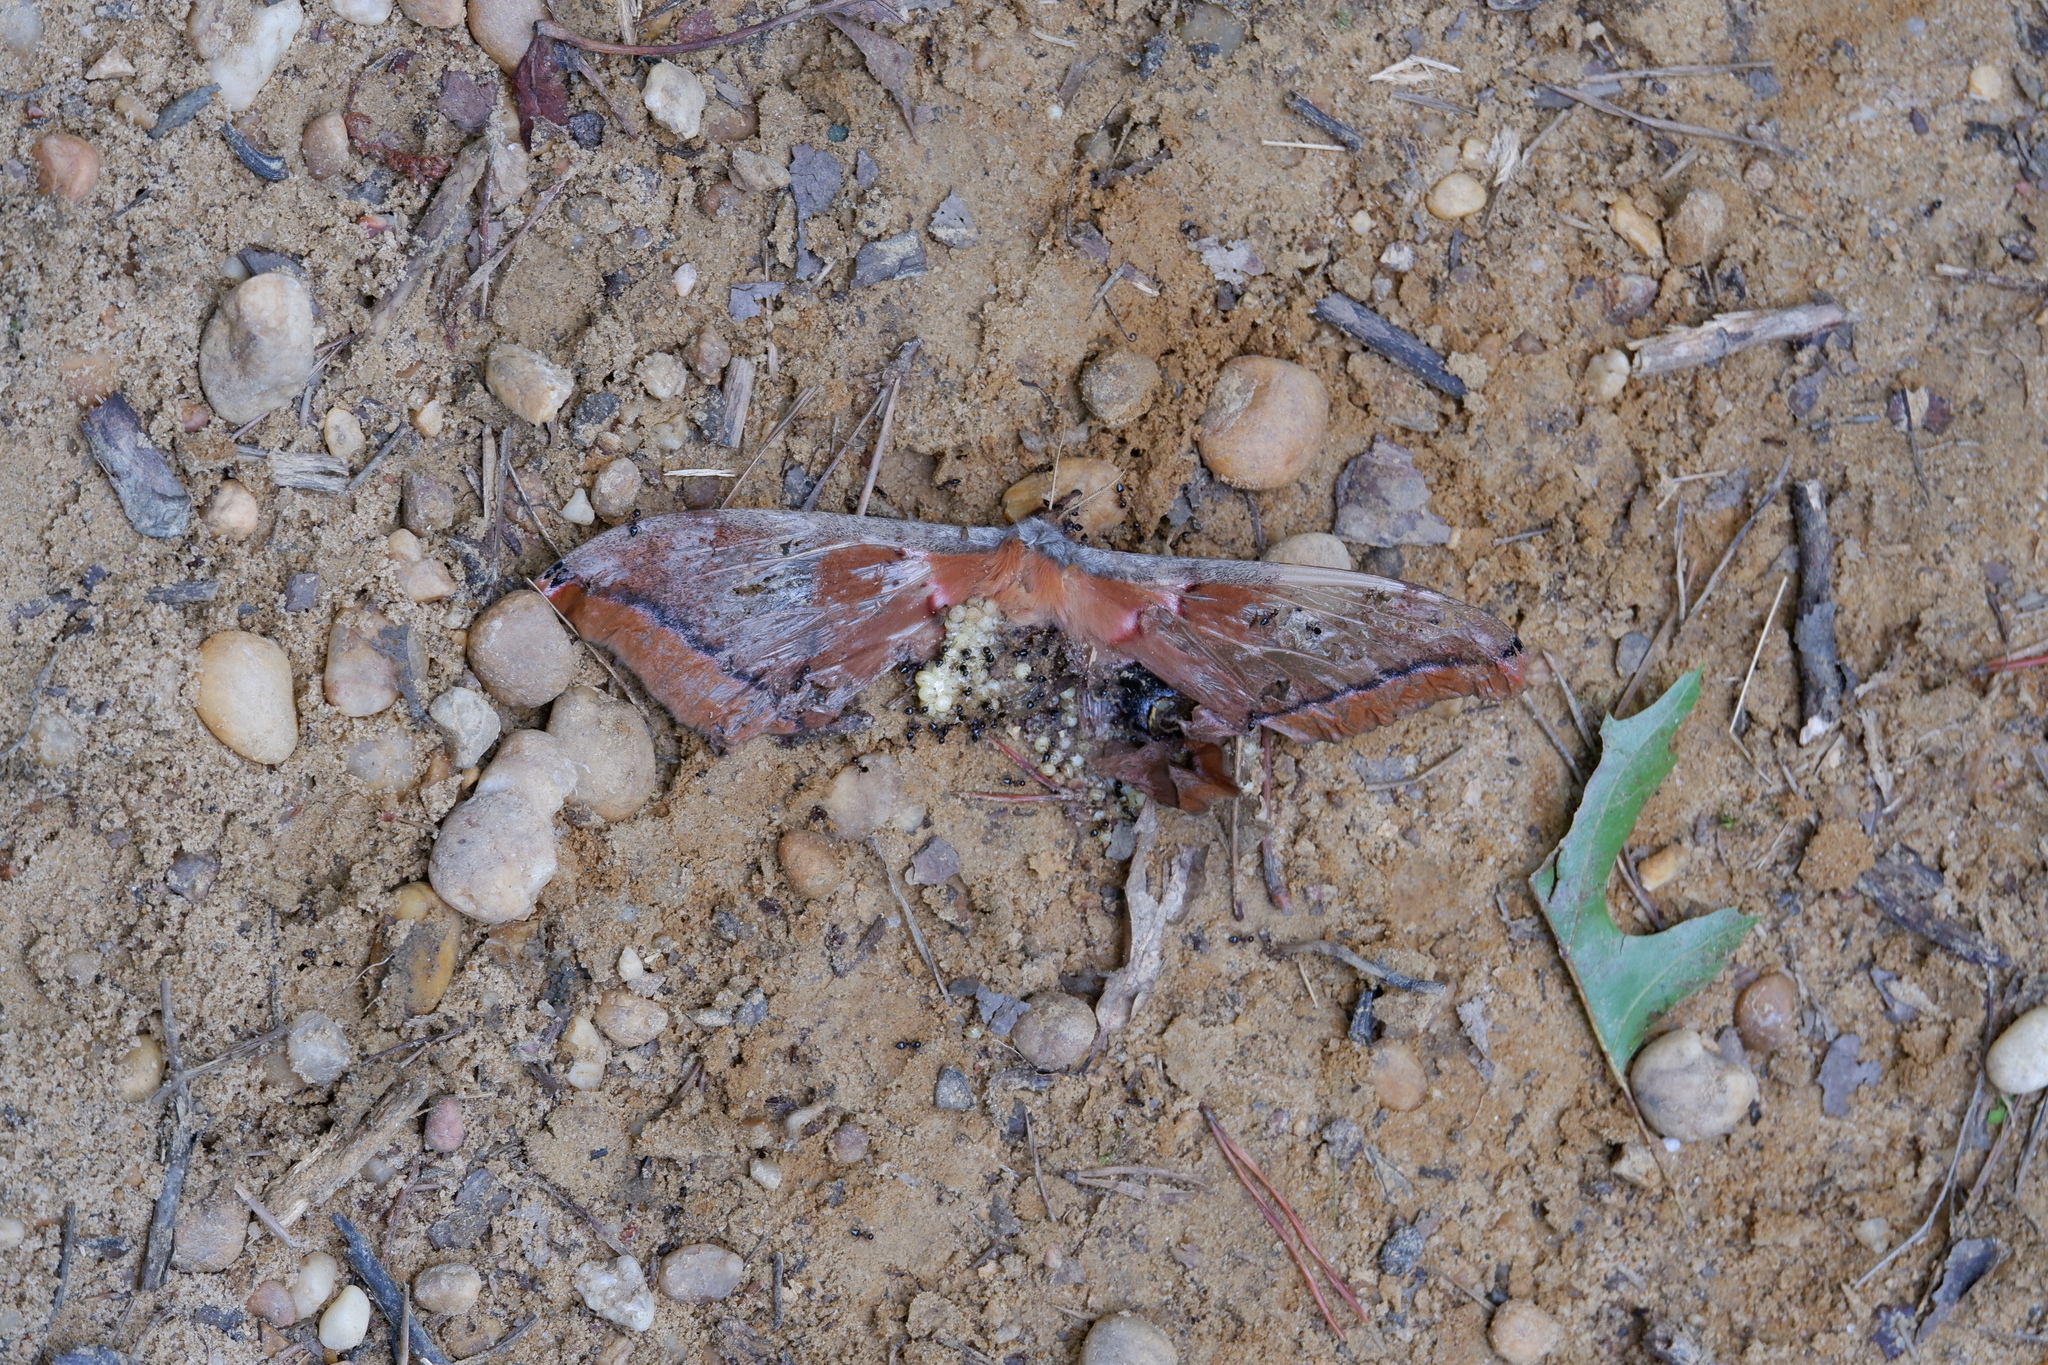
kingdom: Animalia
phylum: Arthropoda
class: Insecta
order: Lepidoptera
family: Saturniidae
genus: Antheraea
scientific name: Antheraea polyphemus
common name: Polyphemus moth
